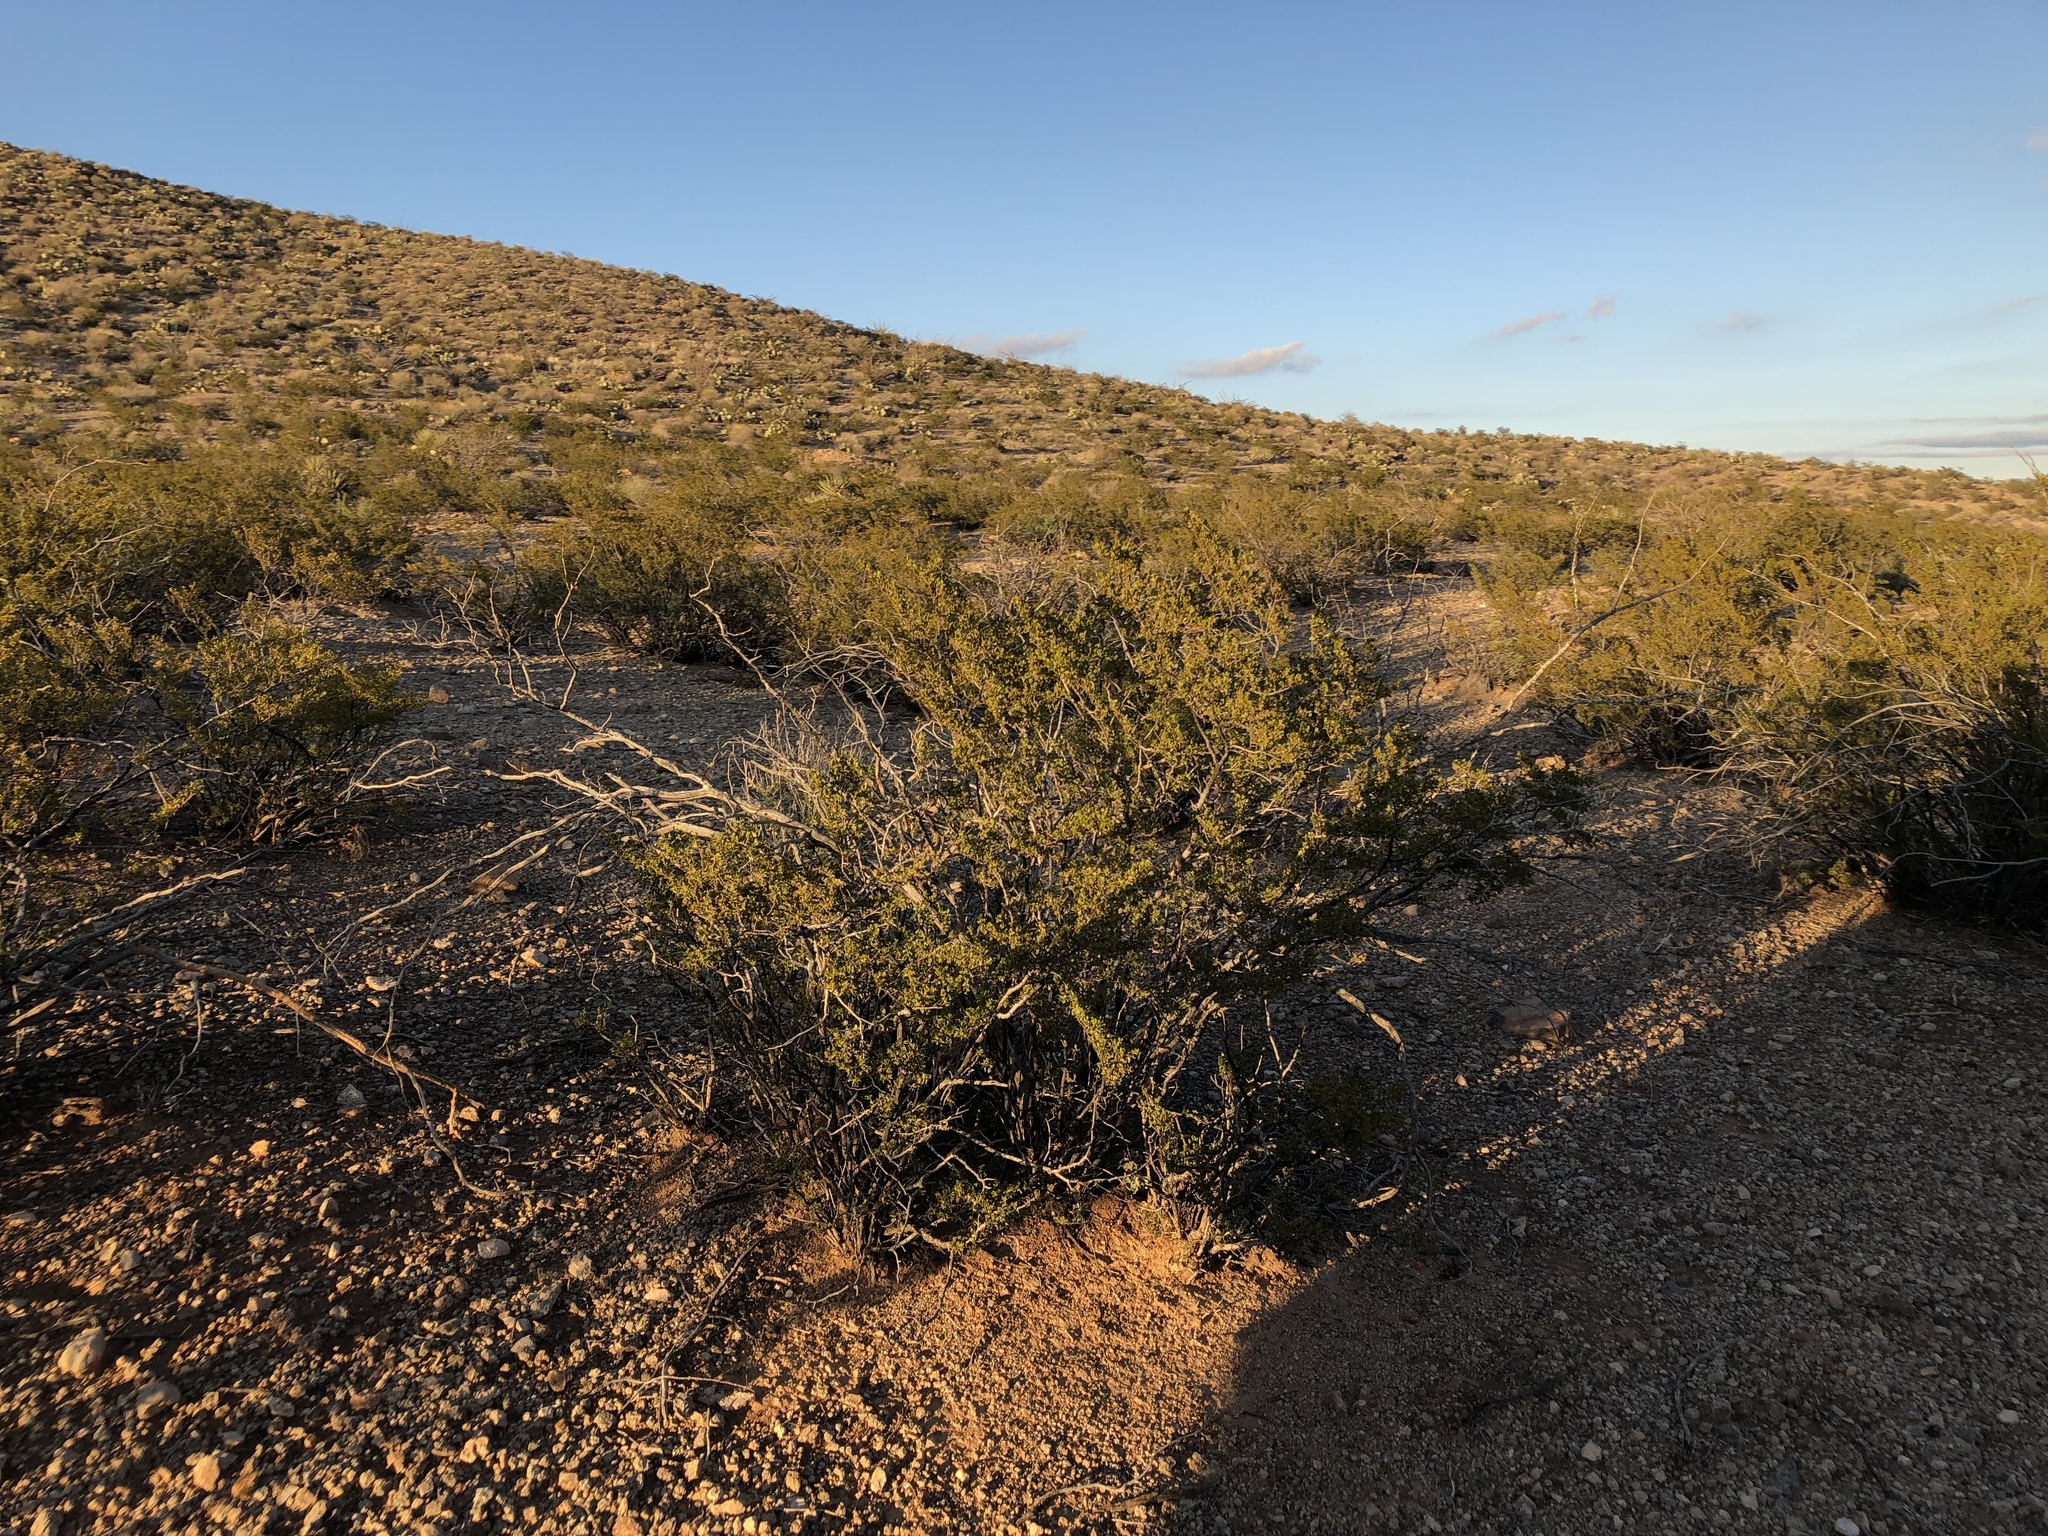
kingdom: Plantae
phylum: Tracheophyta
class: Magnoliopsida
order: Zygophyllales
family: Zygophyllaceae
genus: Larrea
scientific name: Larrea tridentata
